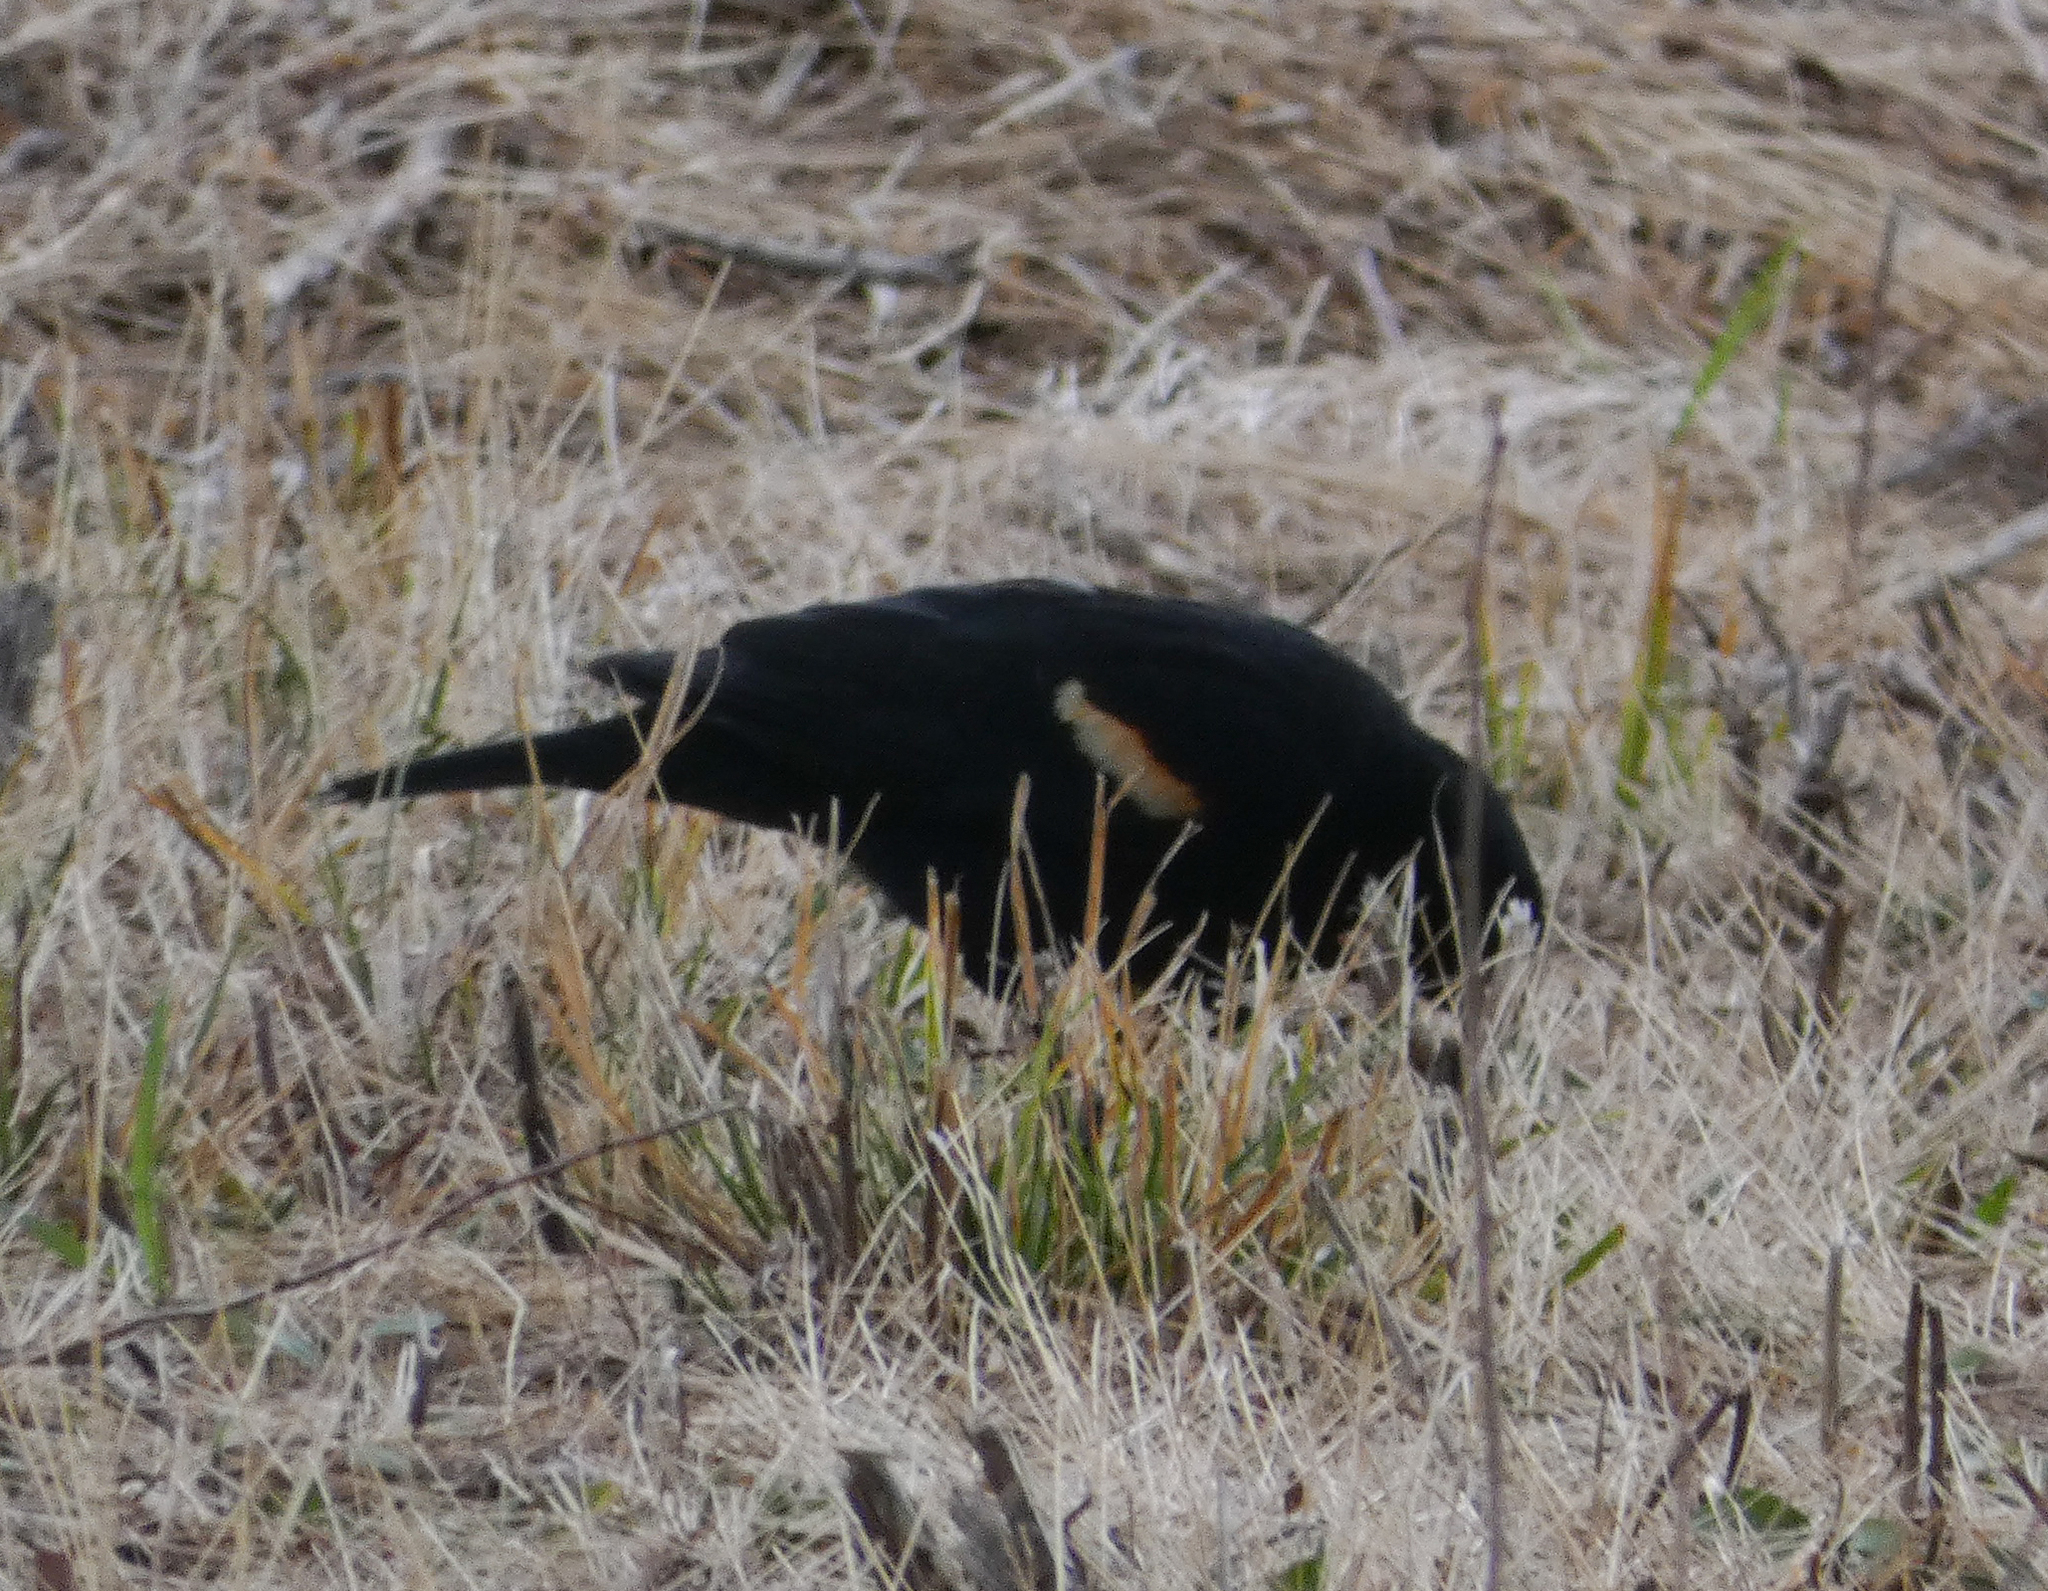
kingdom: Animalia
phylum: Chordata
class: Aves
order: Passeriformes
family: Icteridae
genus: Agelaius
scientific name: Agelaius phoeniceus
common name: Red-winged blackbird
